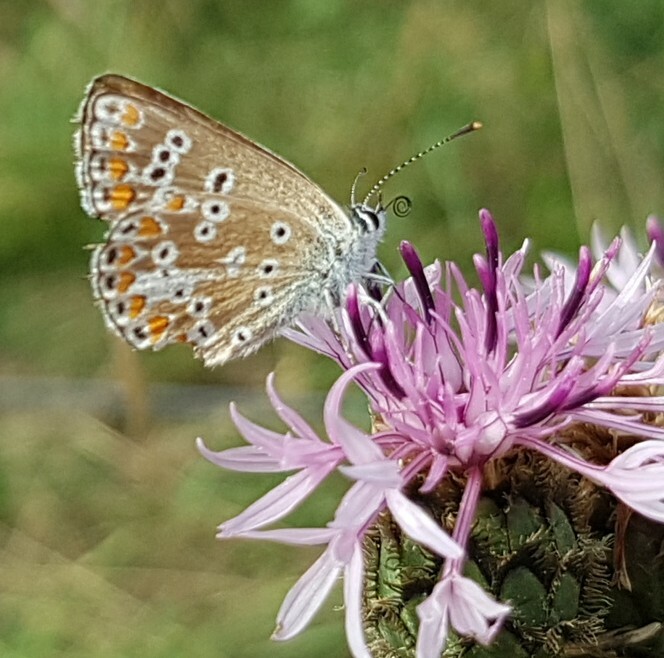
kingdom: Animalia
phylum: Arthropoda
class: Insecta
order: Lepidoptera
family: Lycaenidae
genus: Aricia
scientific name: Aricia agestis
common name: Brown argus
